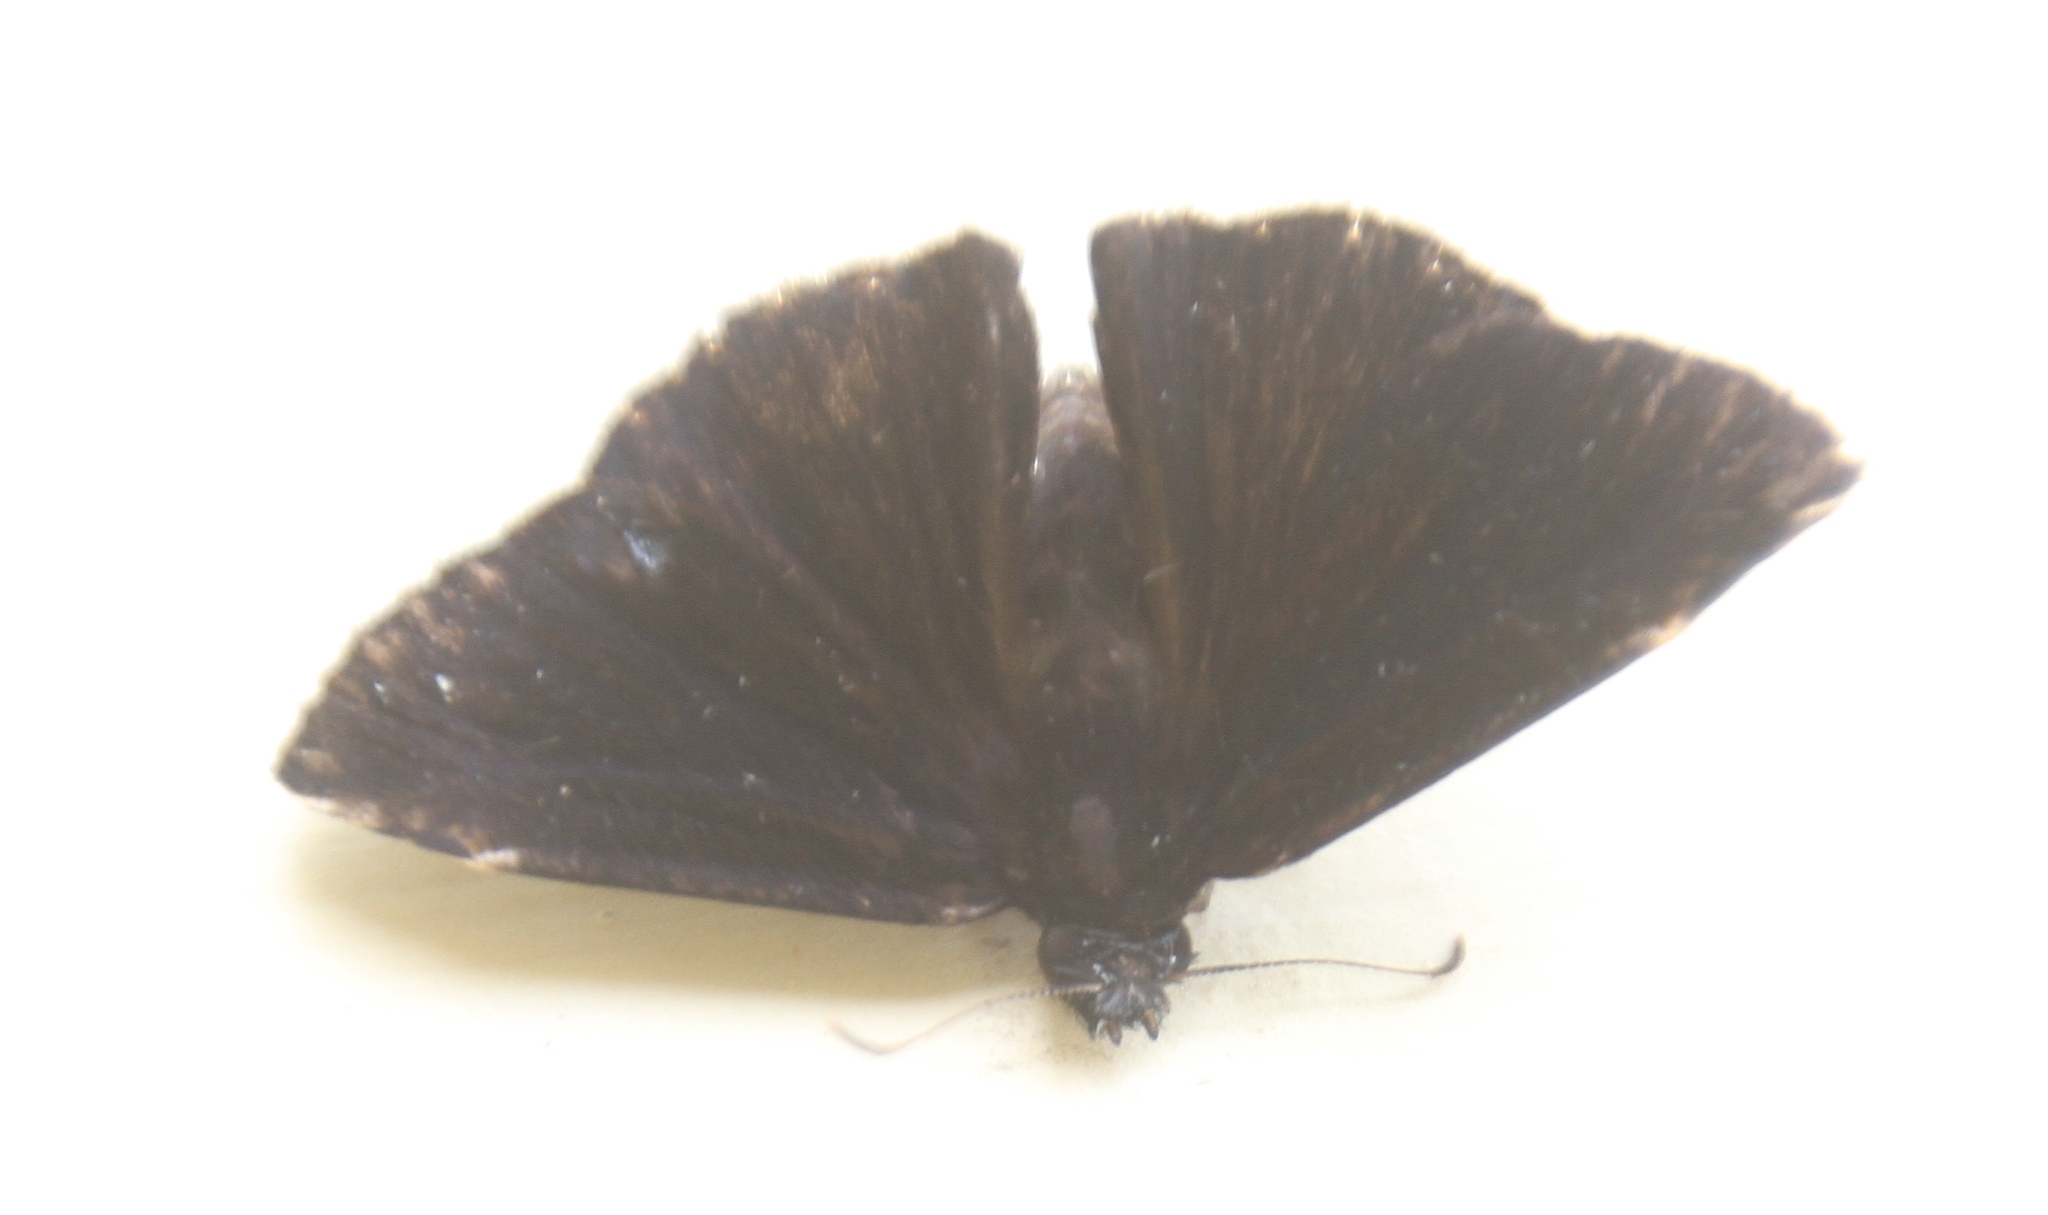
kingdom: Animalia
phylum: Arthropoda
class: Insecta
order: Lepidoptera
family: Hesperiidae
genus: Ephyriades
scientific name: Ephyriades arcas
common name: Caribbean duskywing
